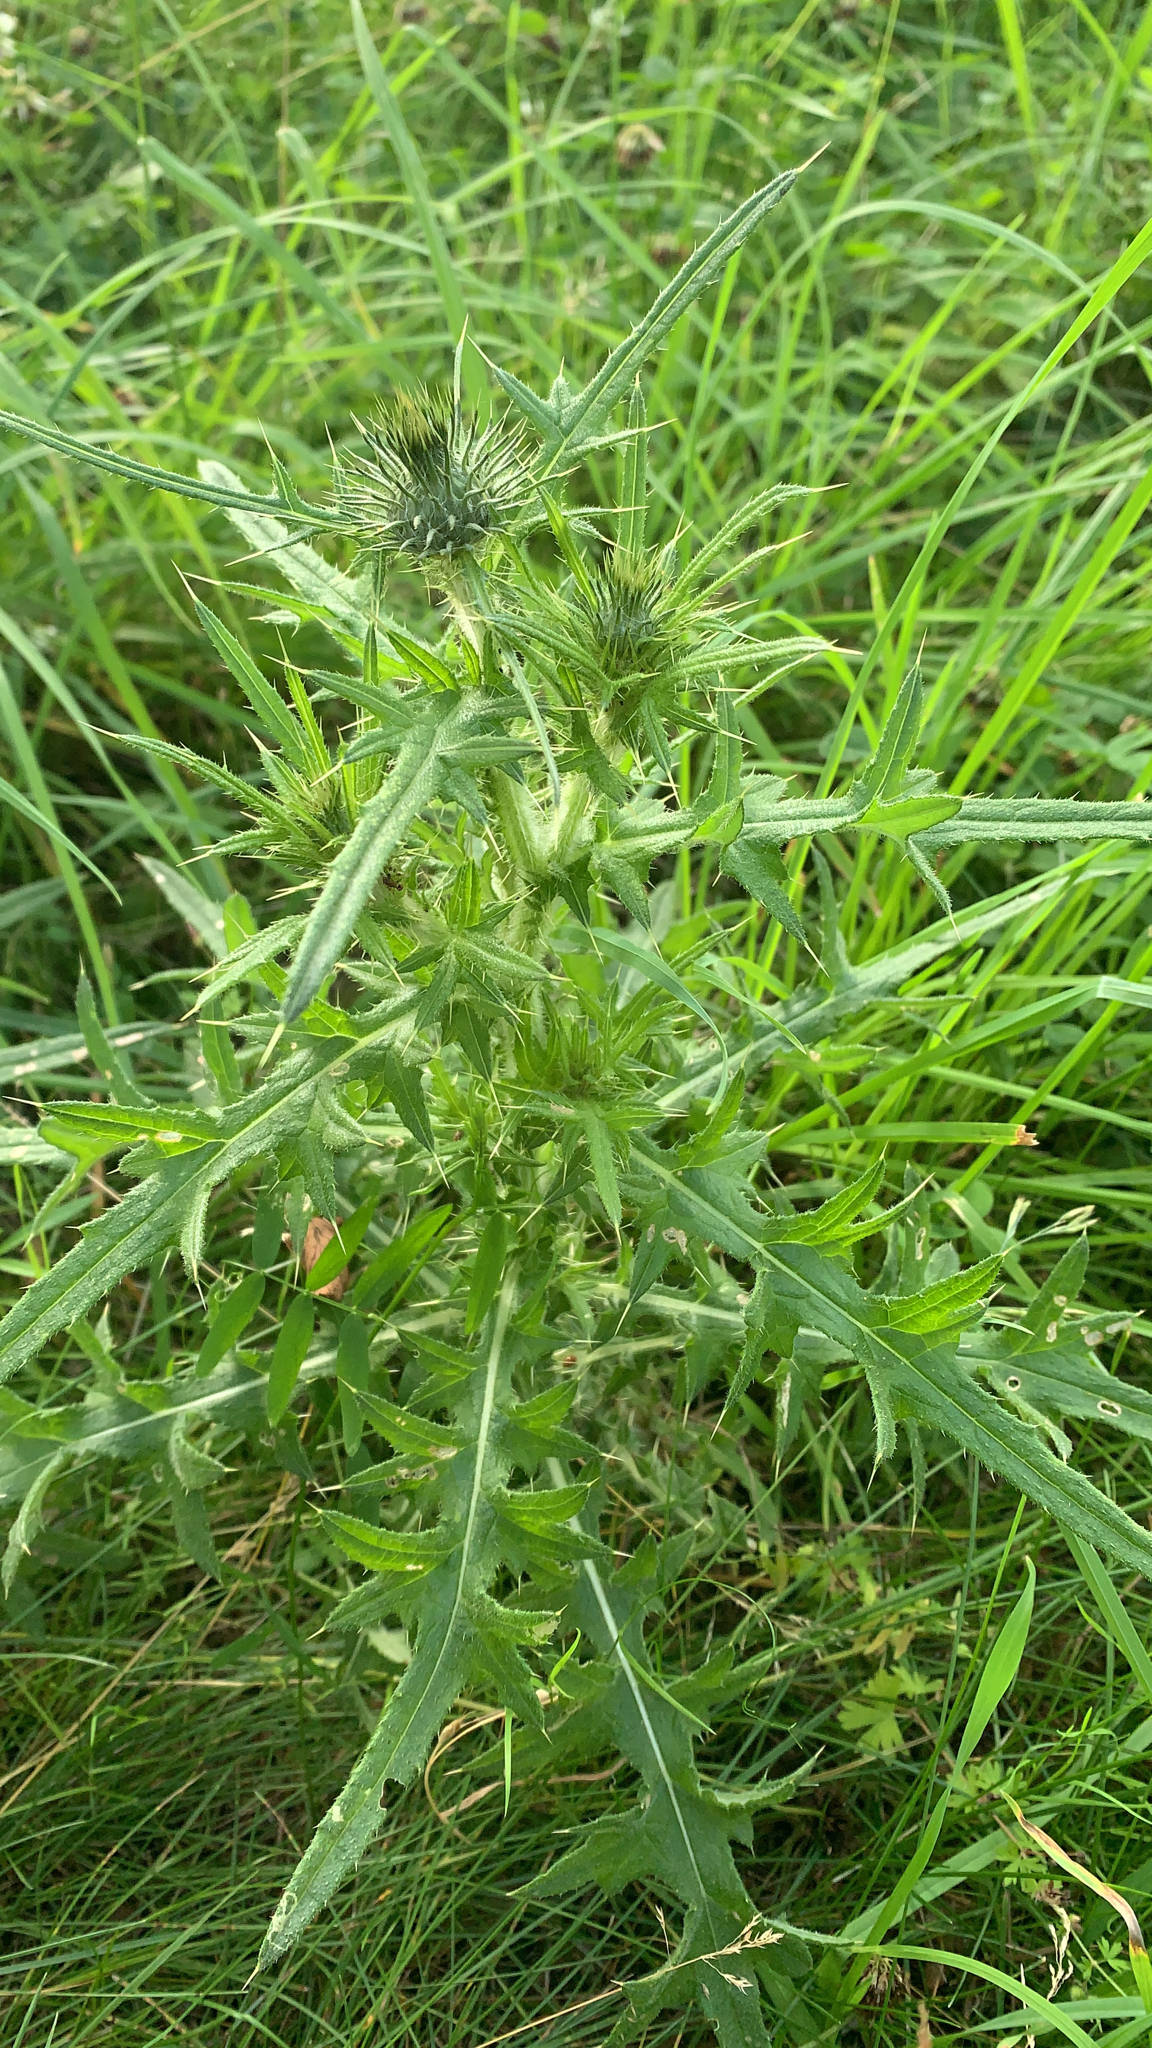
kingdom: Plantae
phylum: Tracheophyta
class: Magnoliopsida
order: Asterales
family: Asteraceae
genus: Cirsium
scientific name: Cirsium vulgare
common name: Bull thistle
